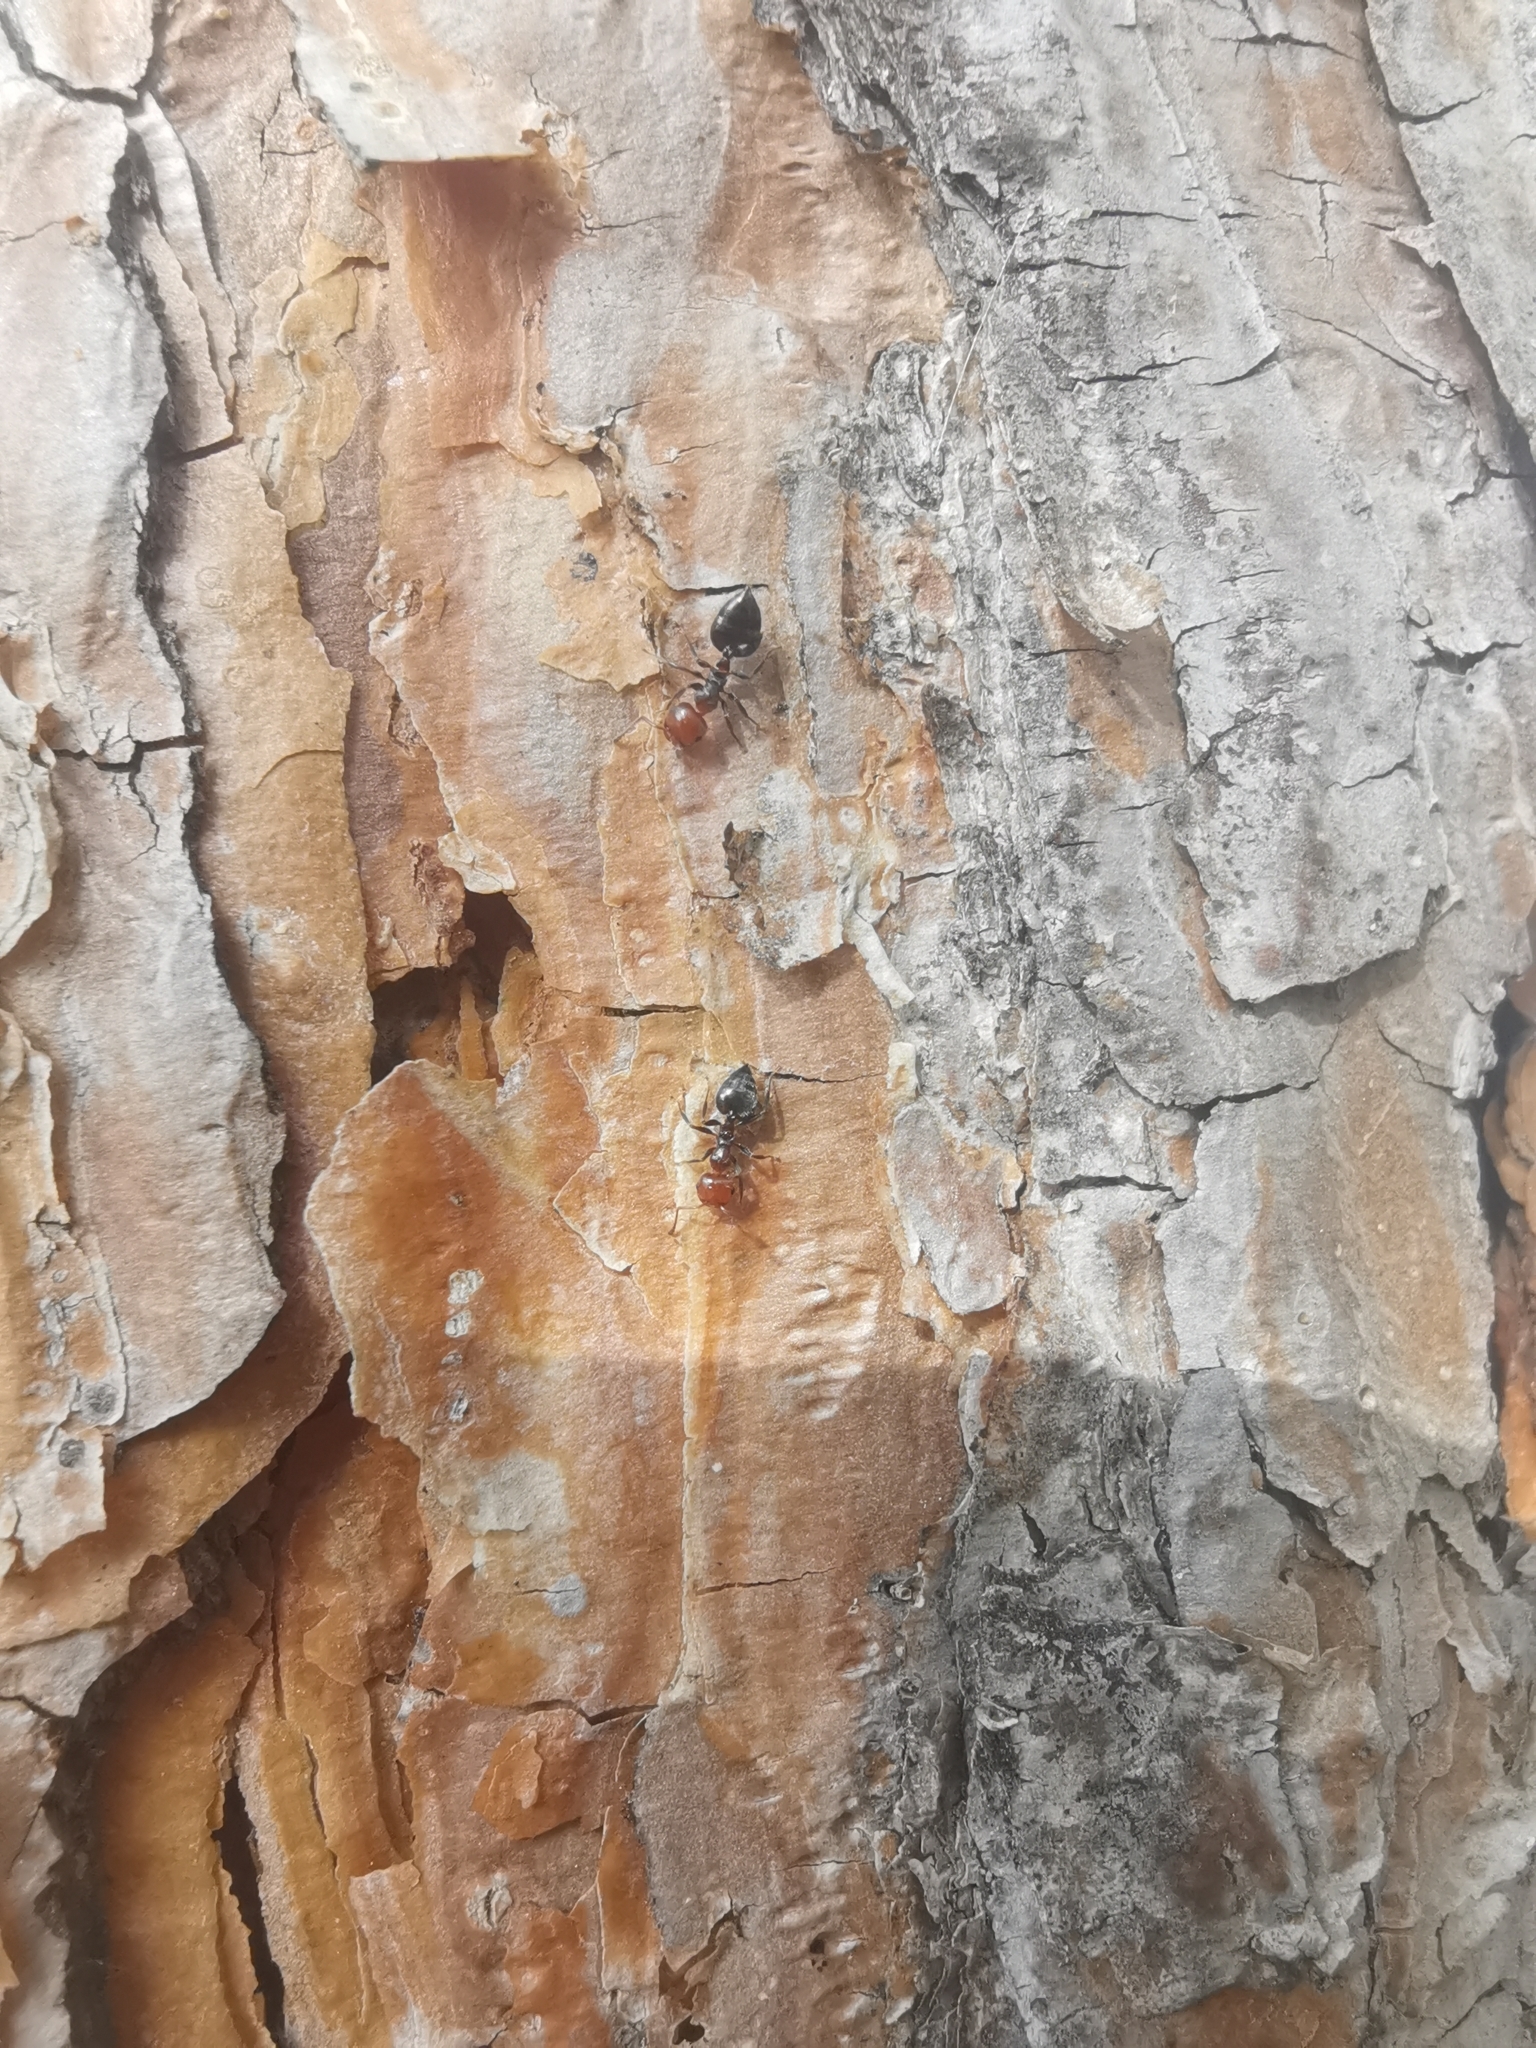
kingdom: Animalia
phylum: Arthropoda
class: Insecta
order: Hymenoptera
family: Formicidae
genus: Crematogaster
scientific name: Crematogaster scutellaris
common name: Fourmi du liège
